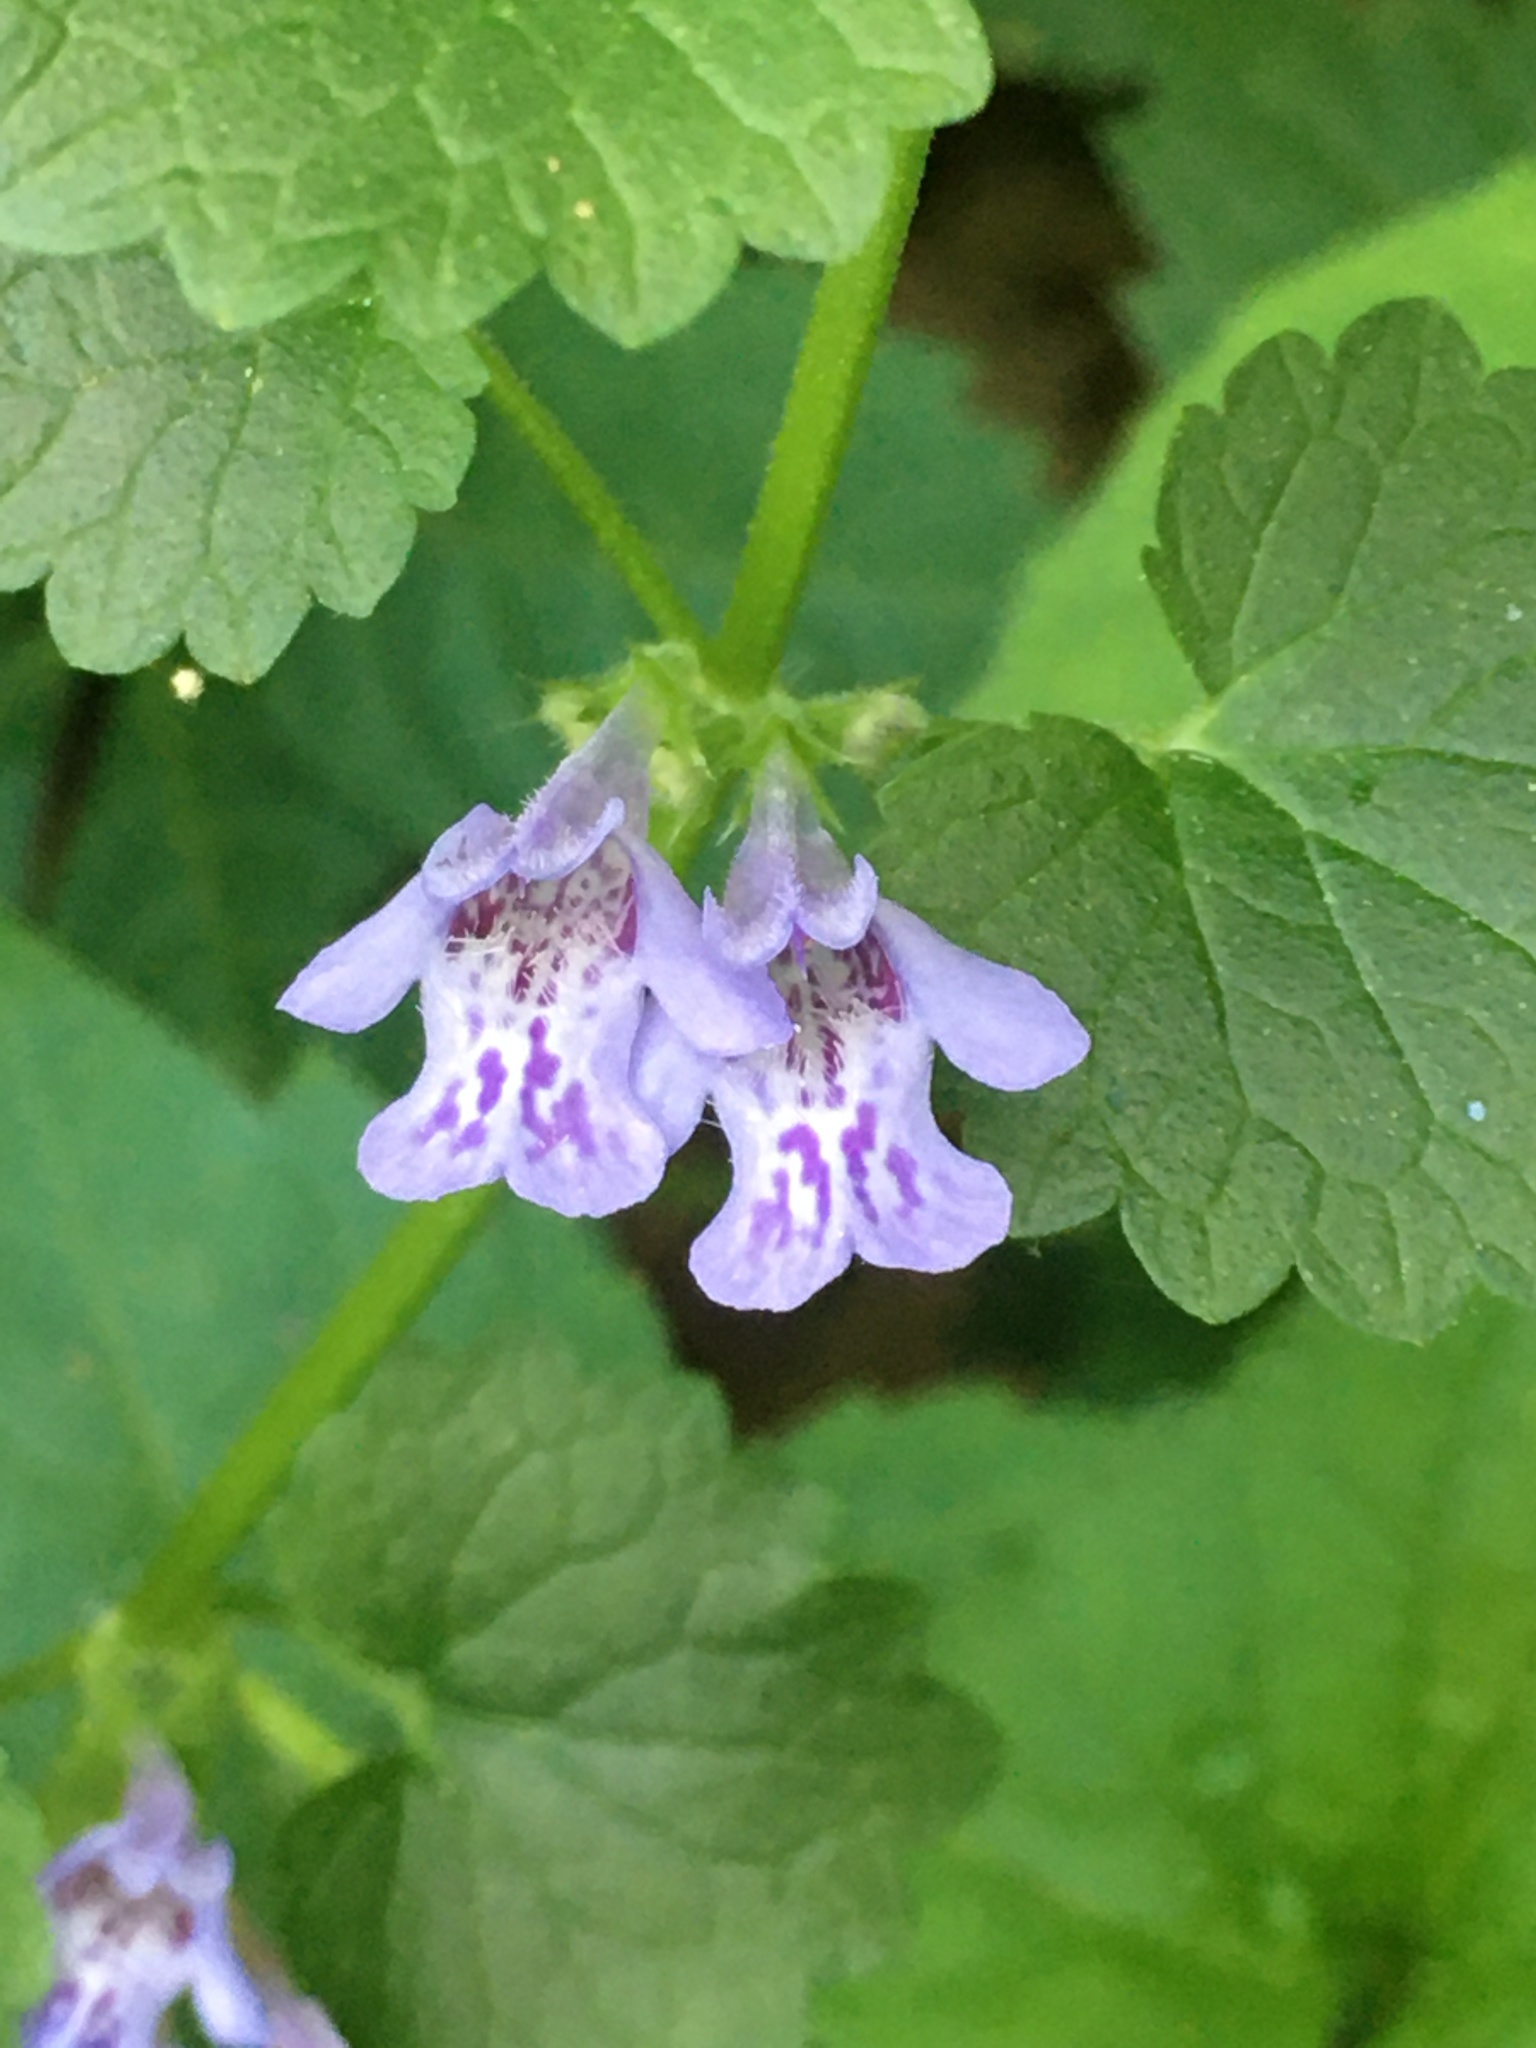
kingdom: Plantae
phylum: Tracheophyta
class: Magnoliopsida
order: Lamiales
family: Lamiaceae
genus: Glechoma
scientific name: Glechoma hederacea
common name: Ground ivy
